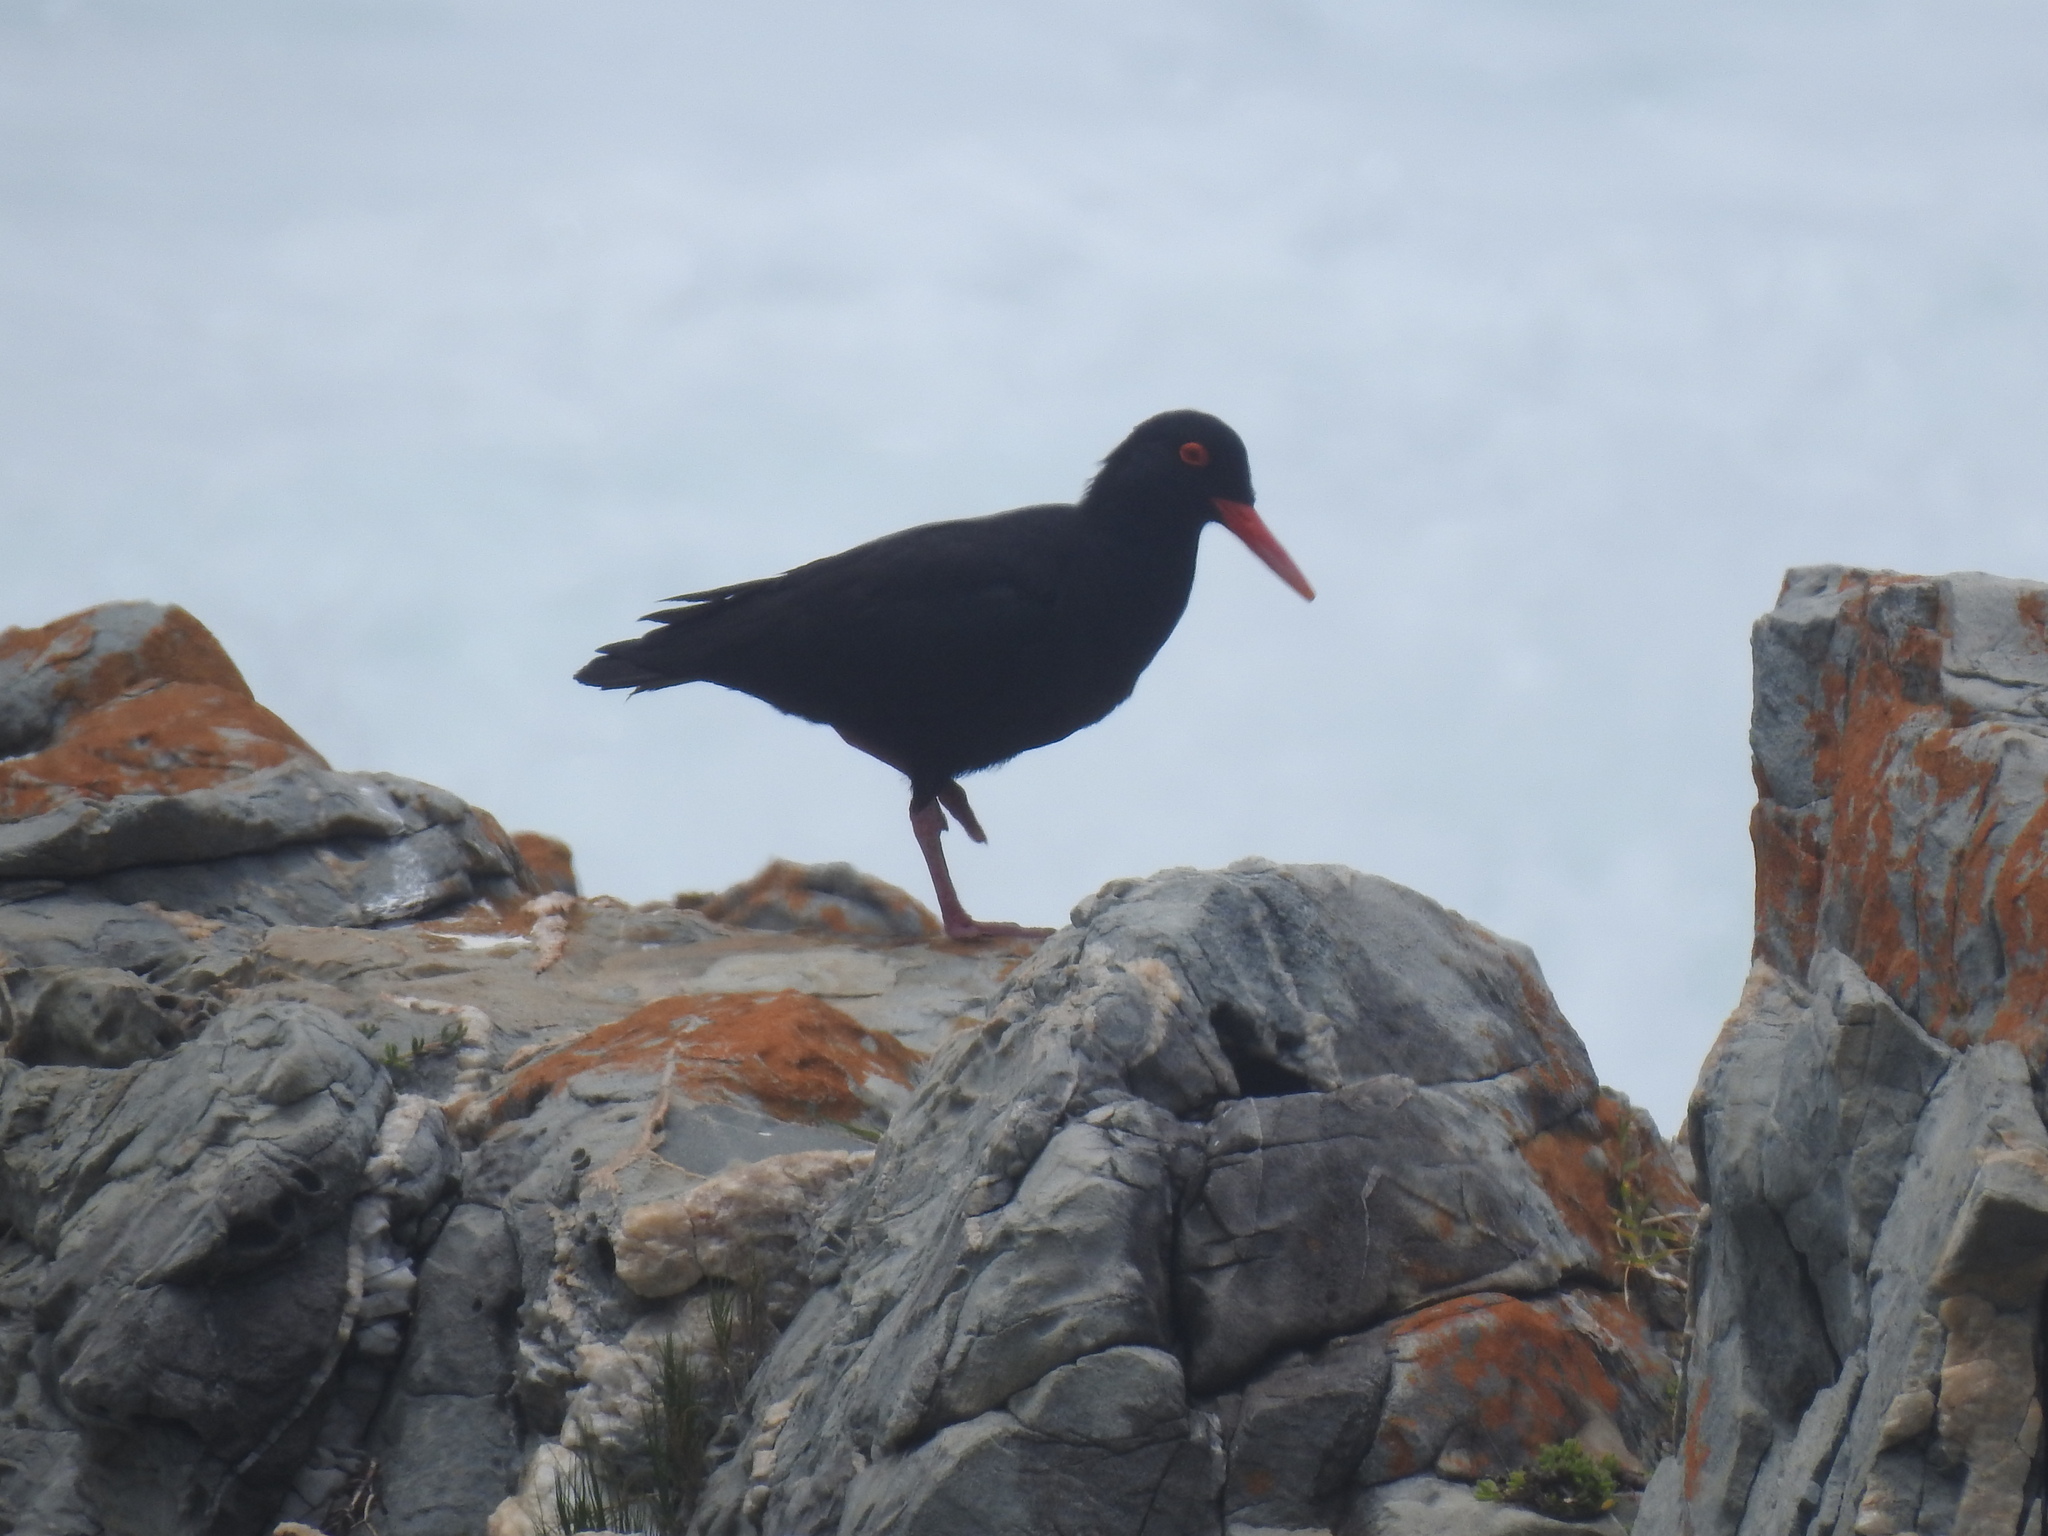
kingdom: Animalia
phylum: Chordata
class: Aves
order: Charadriiformes
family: Haematopodidae
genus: Haematopus
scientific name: Haematopus moquini
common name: African oystercatcher
